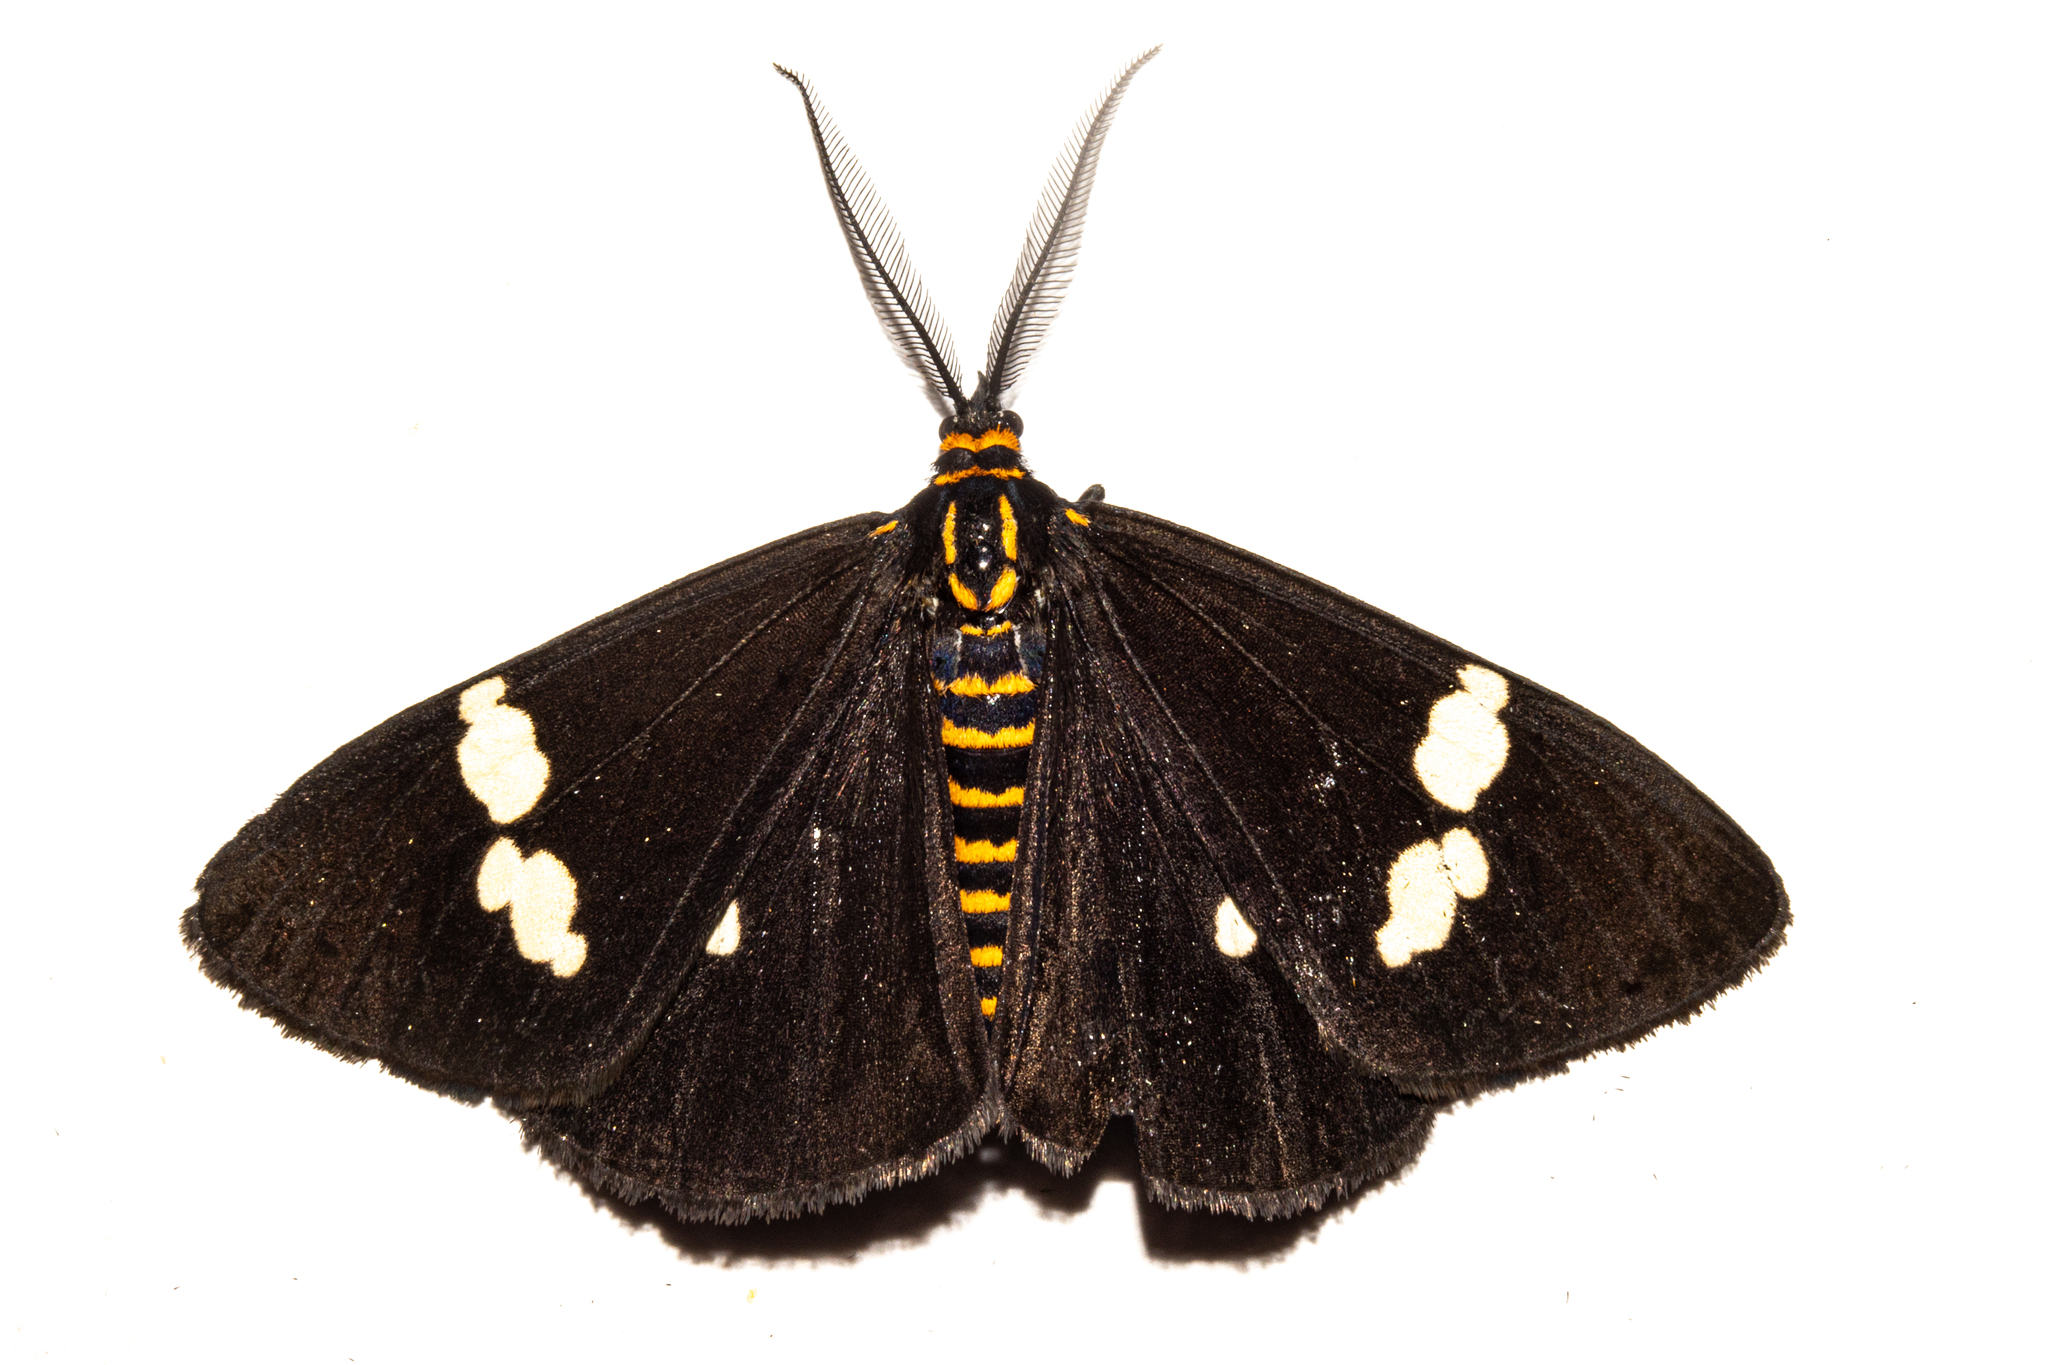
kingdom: Animalia
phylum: Arthropoda
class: Insecta
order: Lepidoptera
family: Erebidae
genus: Nyctemera
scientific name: Nyctemera annulatum
